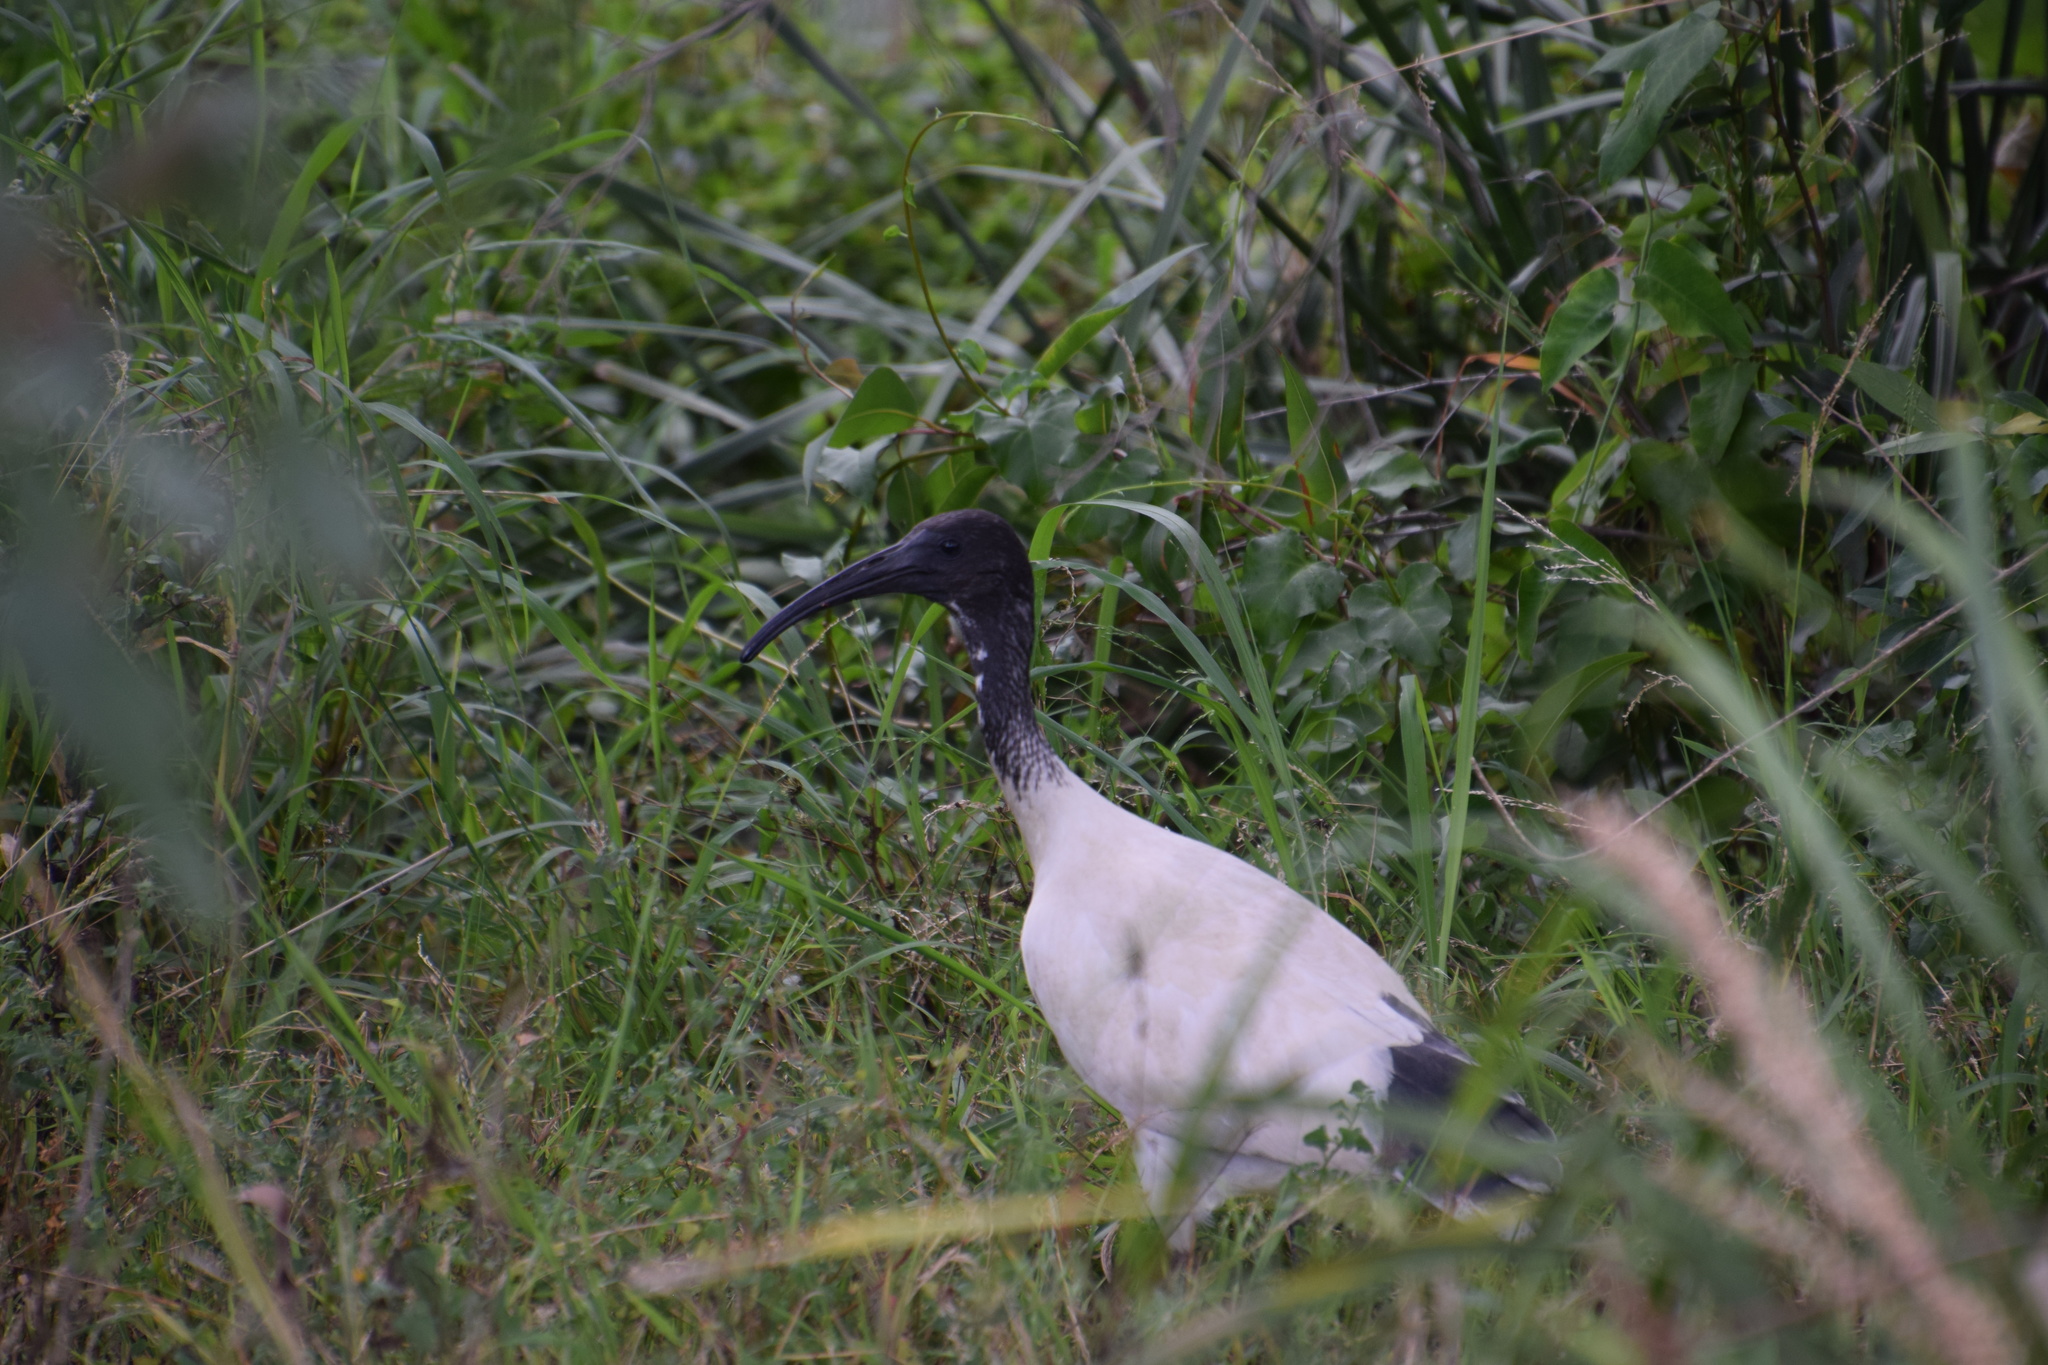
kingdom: Animalia
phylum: Chordata
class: Aves
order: Pelecaniformes
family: Threskiornithidae
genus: Threskiornis
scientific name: Threskiornis molucca
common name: Australian white ibis
